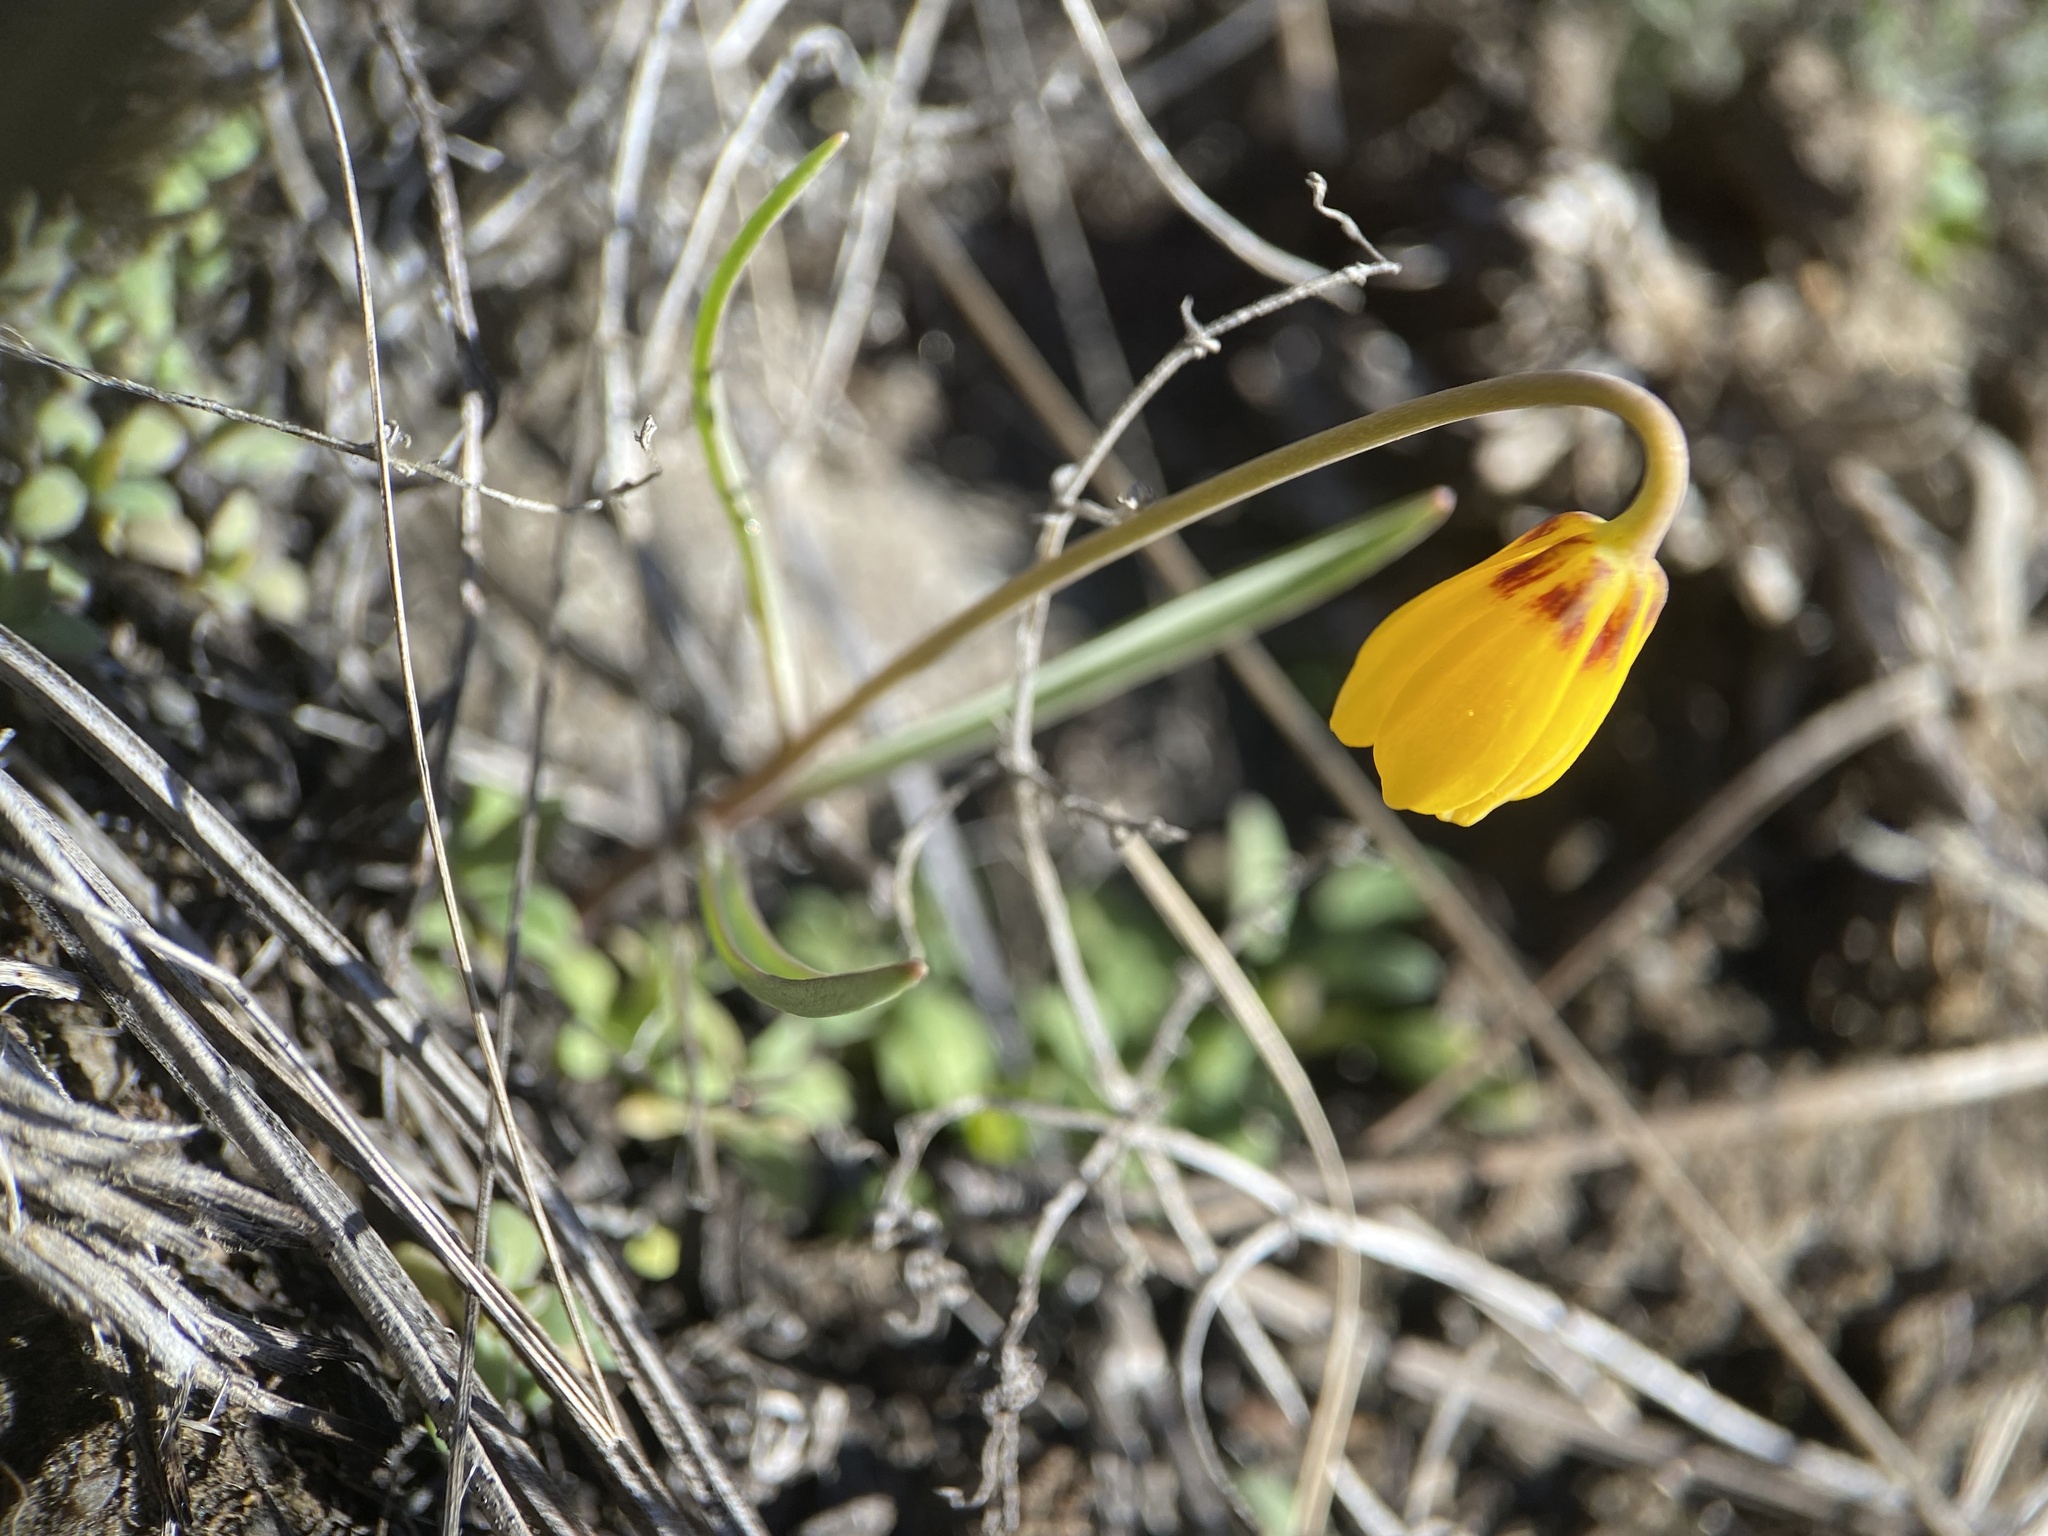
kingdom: Plantae
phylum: Tracheophyta
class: Liliopsida
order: Liliales
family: Liliaceae
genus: Fritillaria
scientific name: Fritillaria pudica
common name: Yellow fritillary
